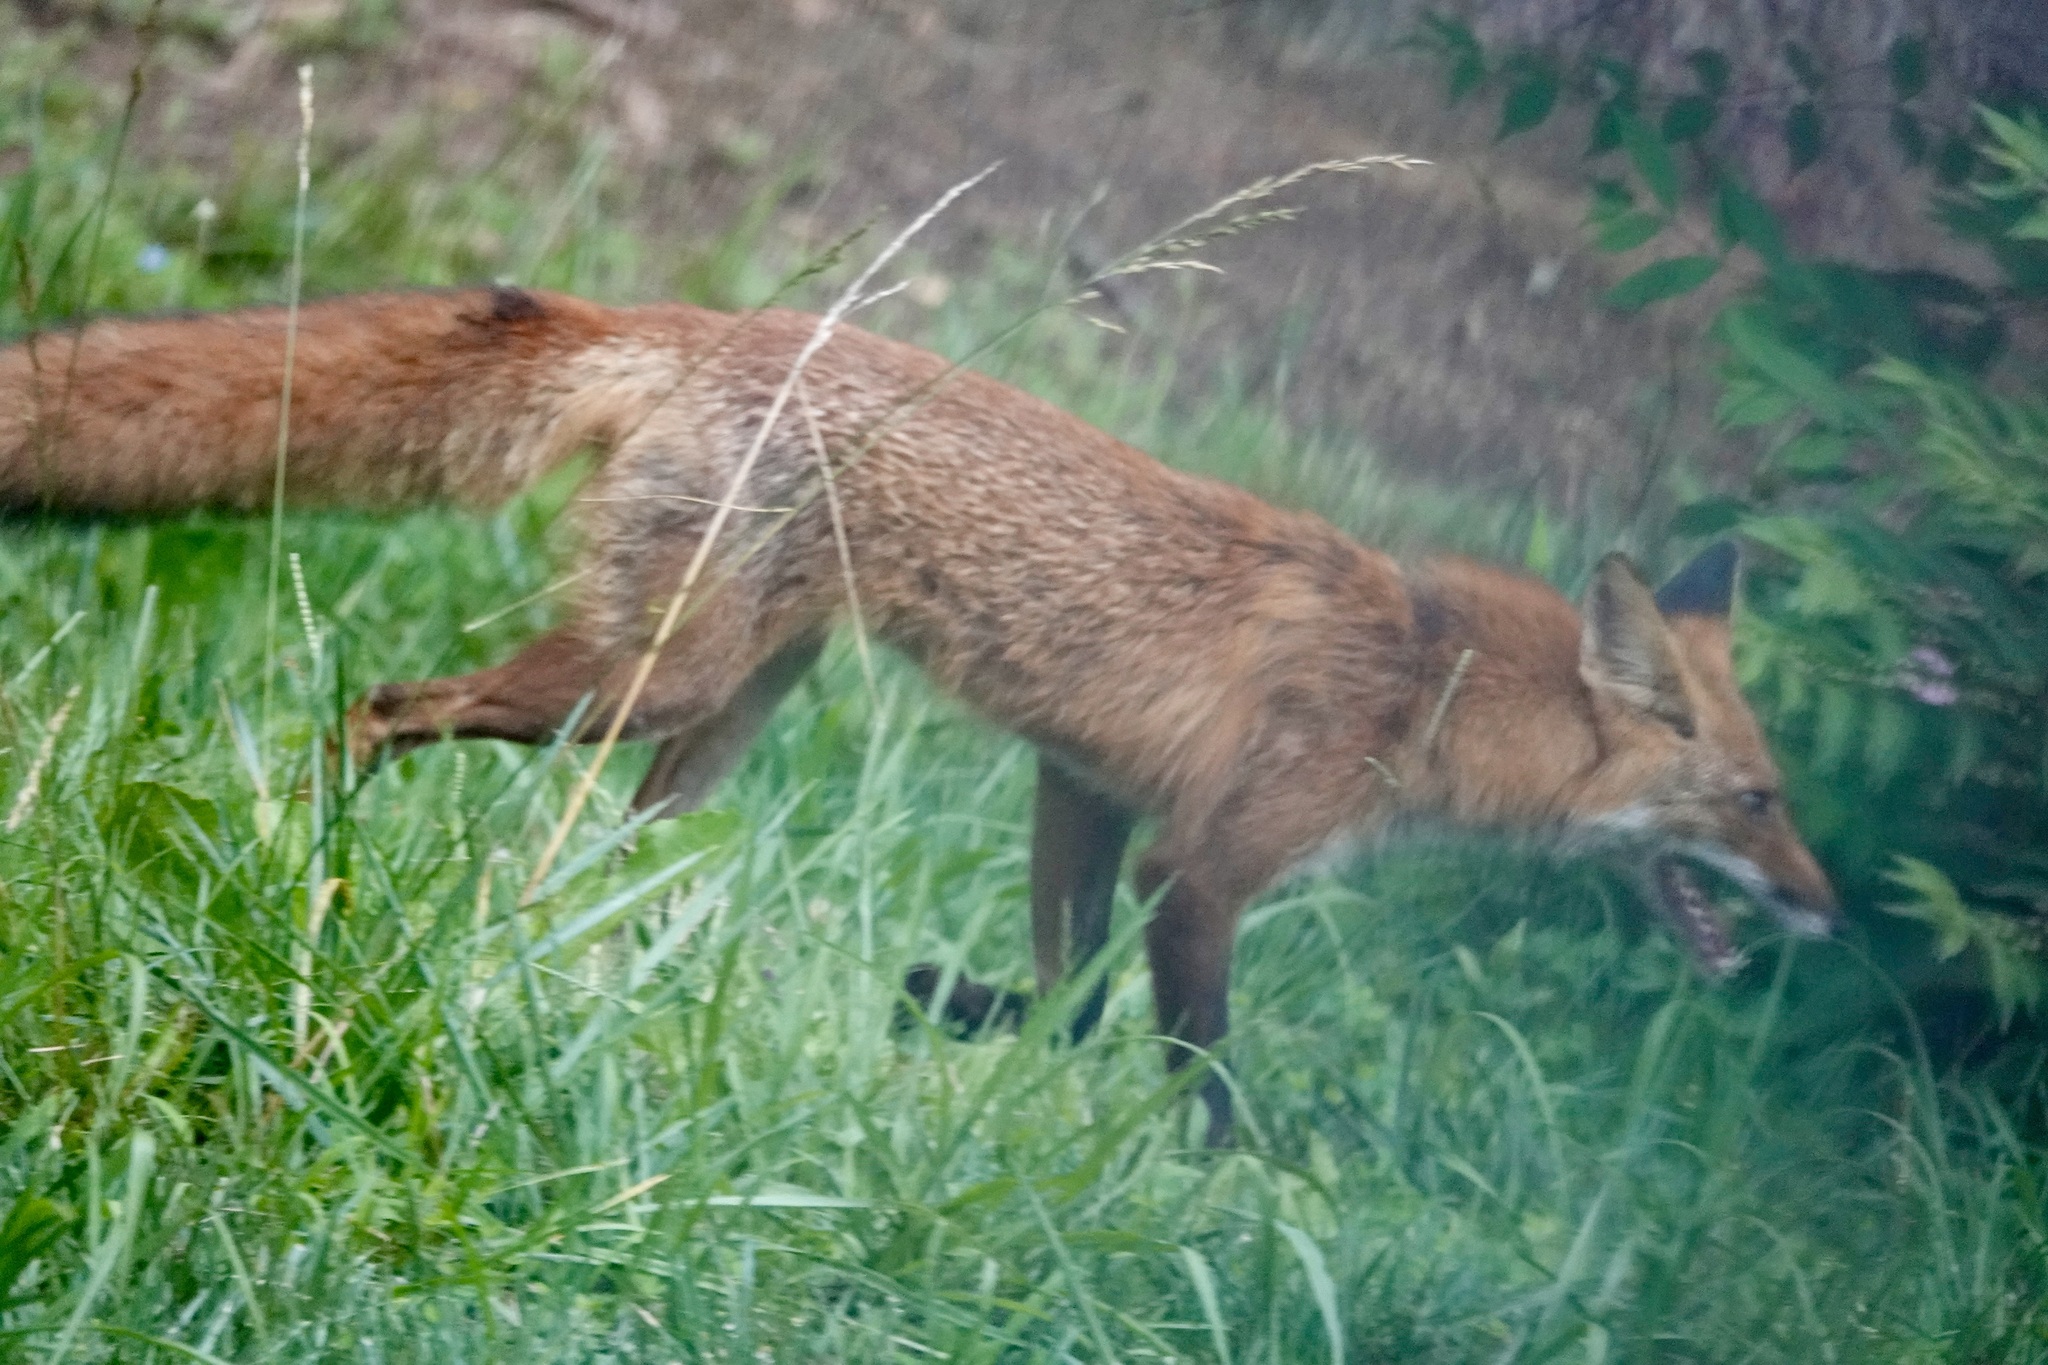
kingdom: Animalia
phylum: Chordata
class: Mammalia
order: Carnivora
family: Canidae
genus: Vulpes
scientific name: Vulpes vulpes
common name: Red fox
